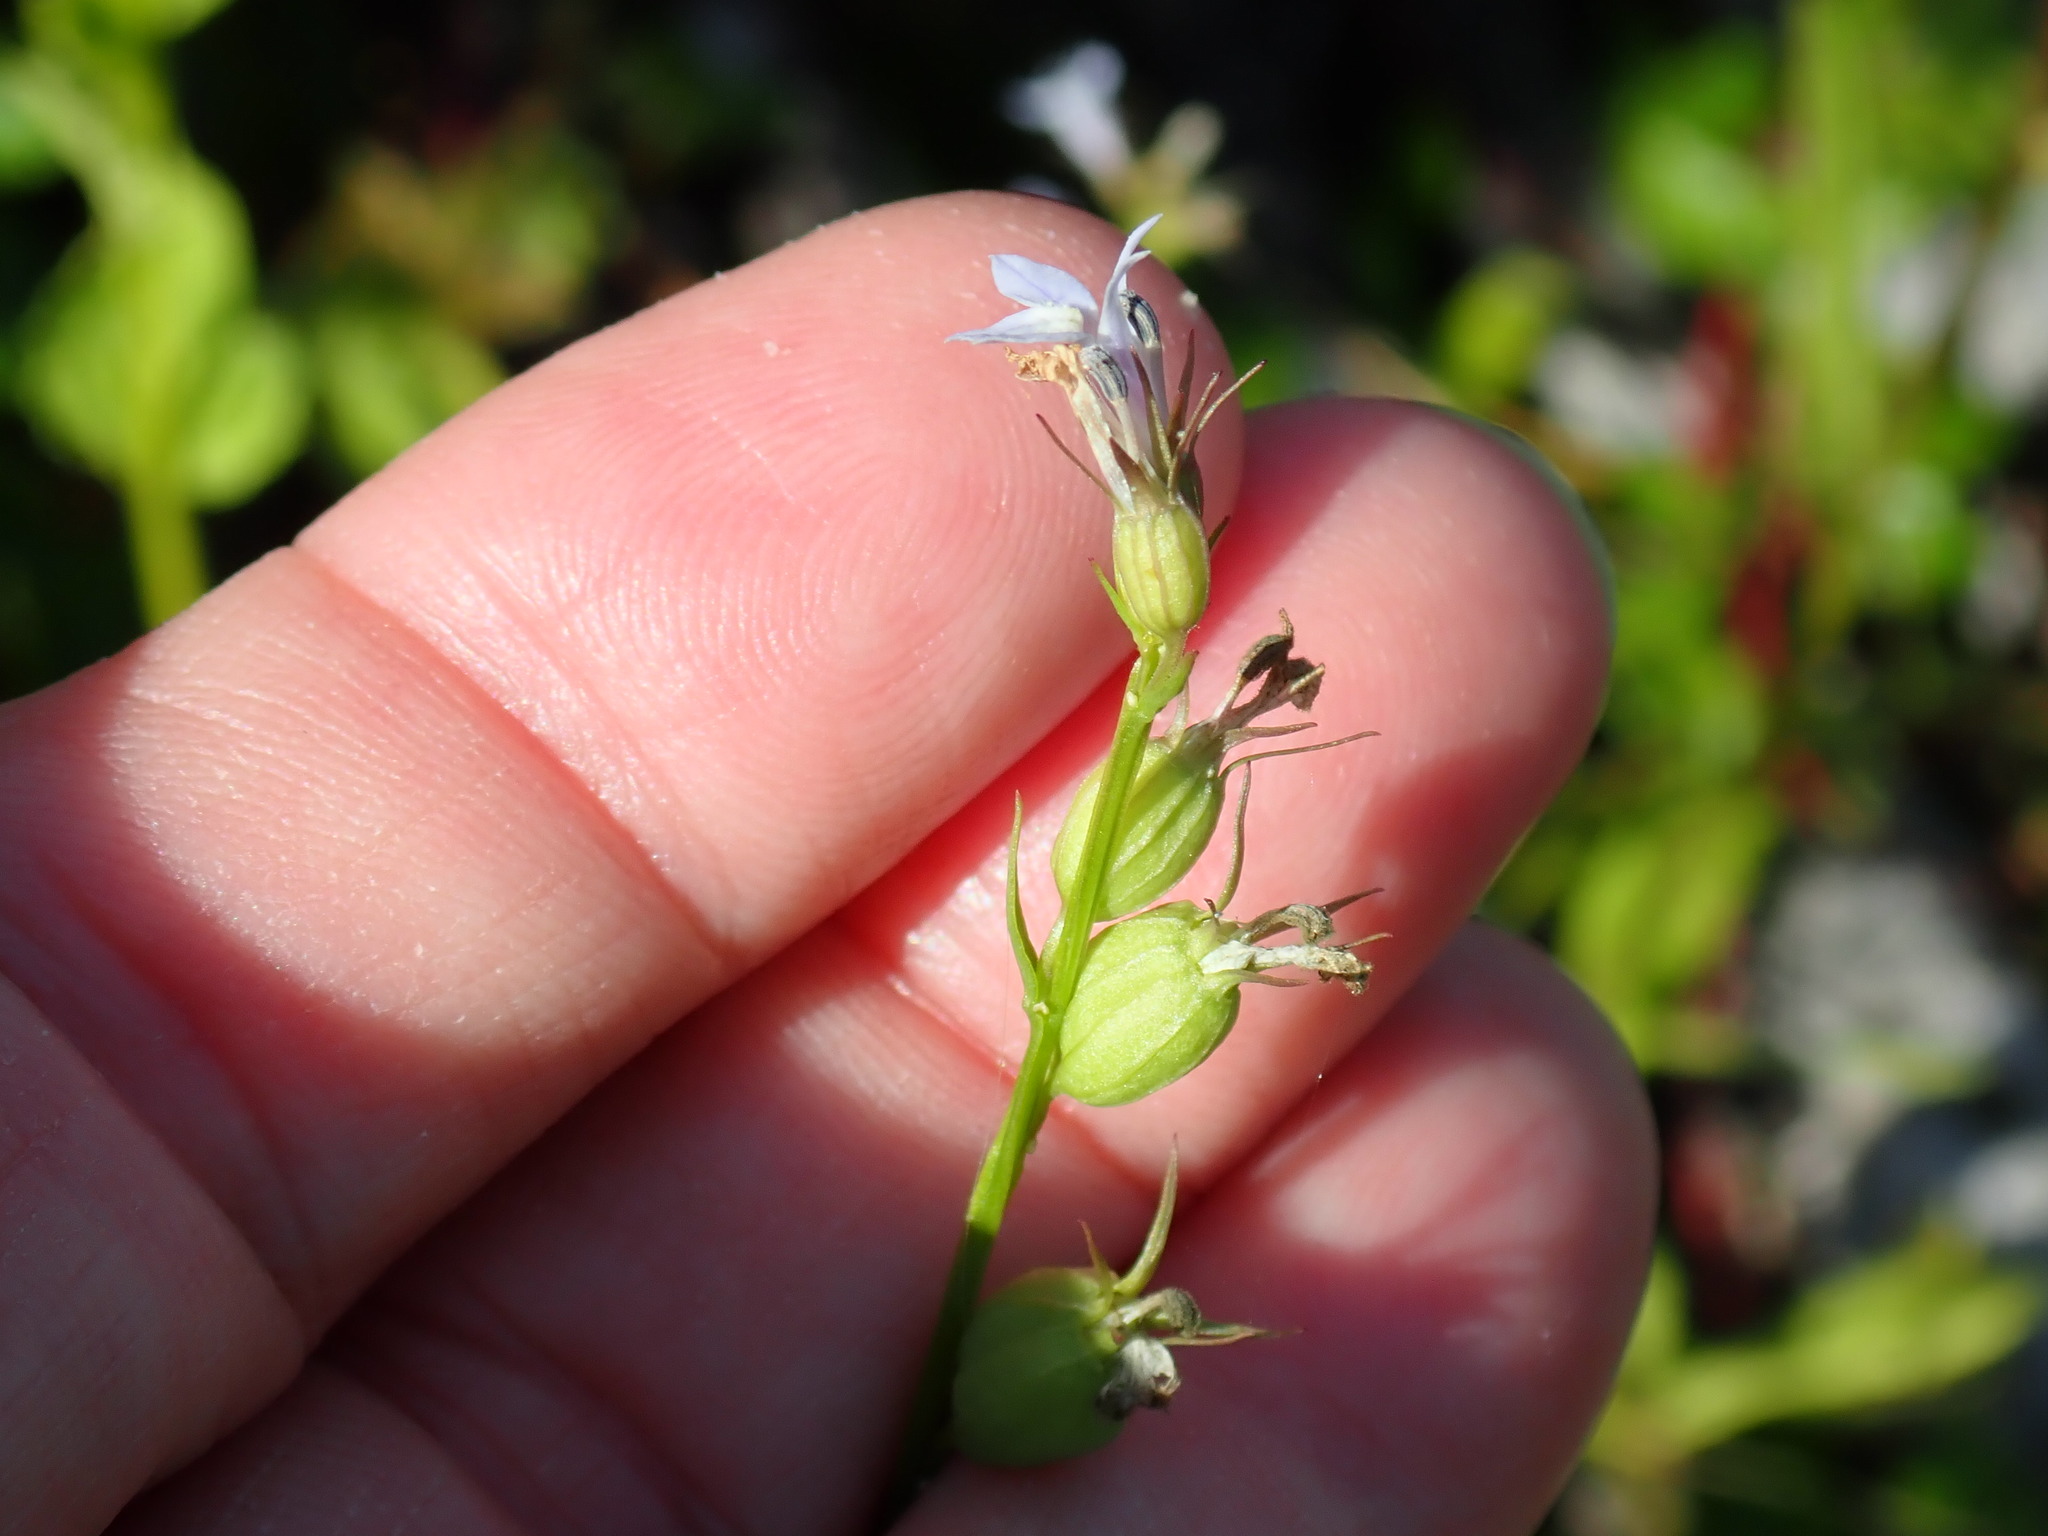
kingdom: Plantae
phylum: Tracheophyta
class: Magnoliopsida
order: Asterales
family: Campanulaceae
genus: Lobelia
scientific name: Lobelia inflata
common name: Indian tobacco
